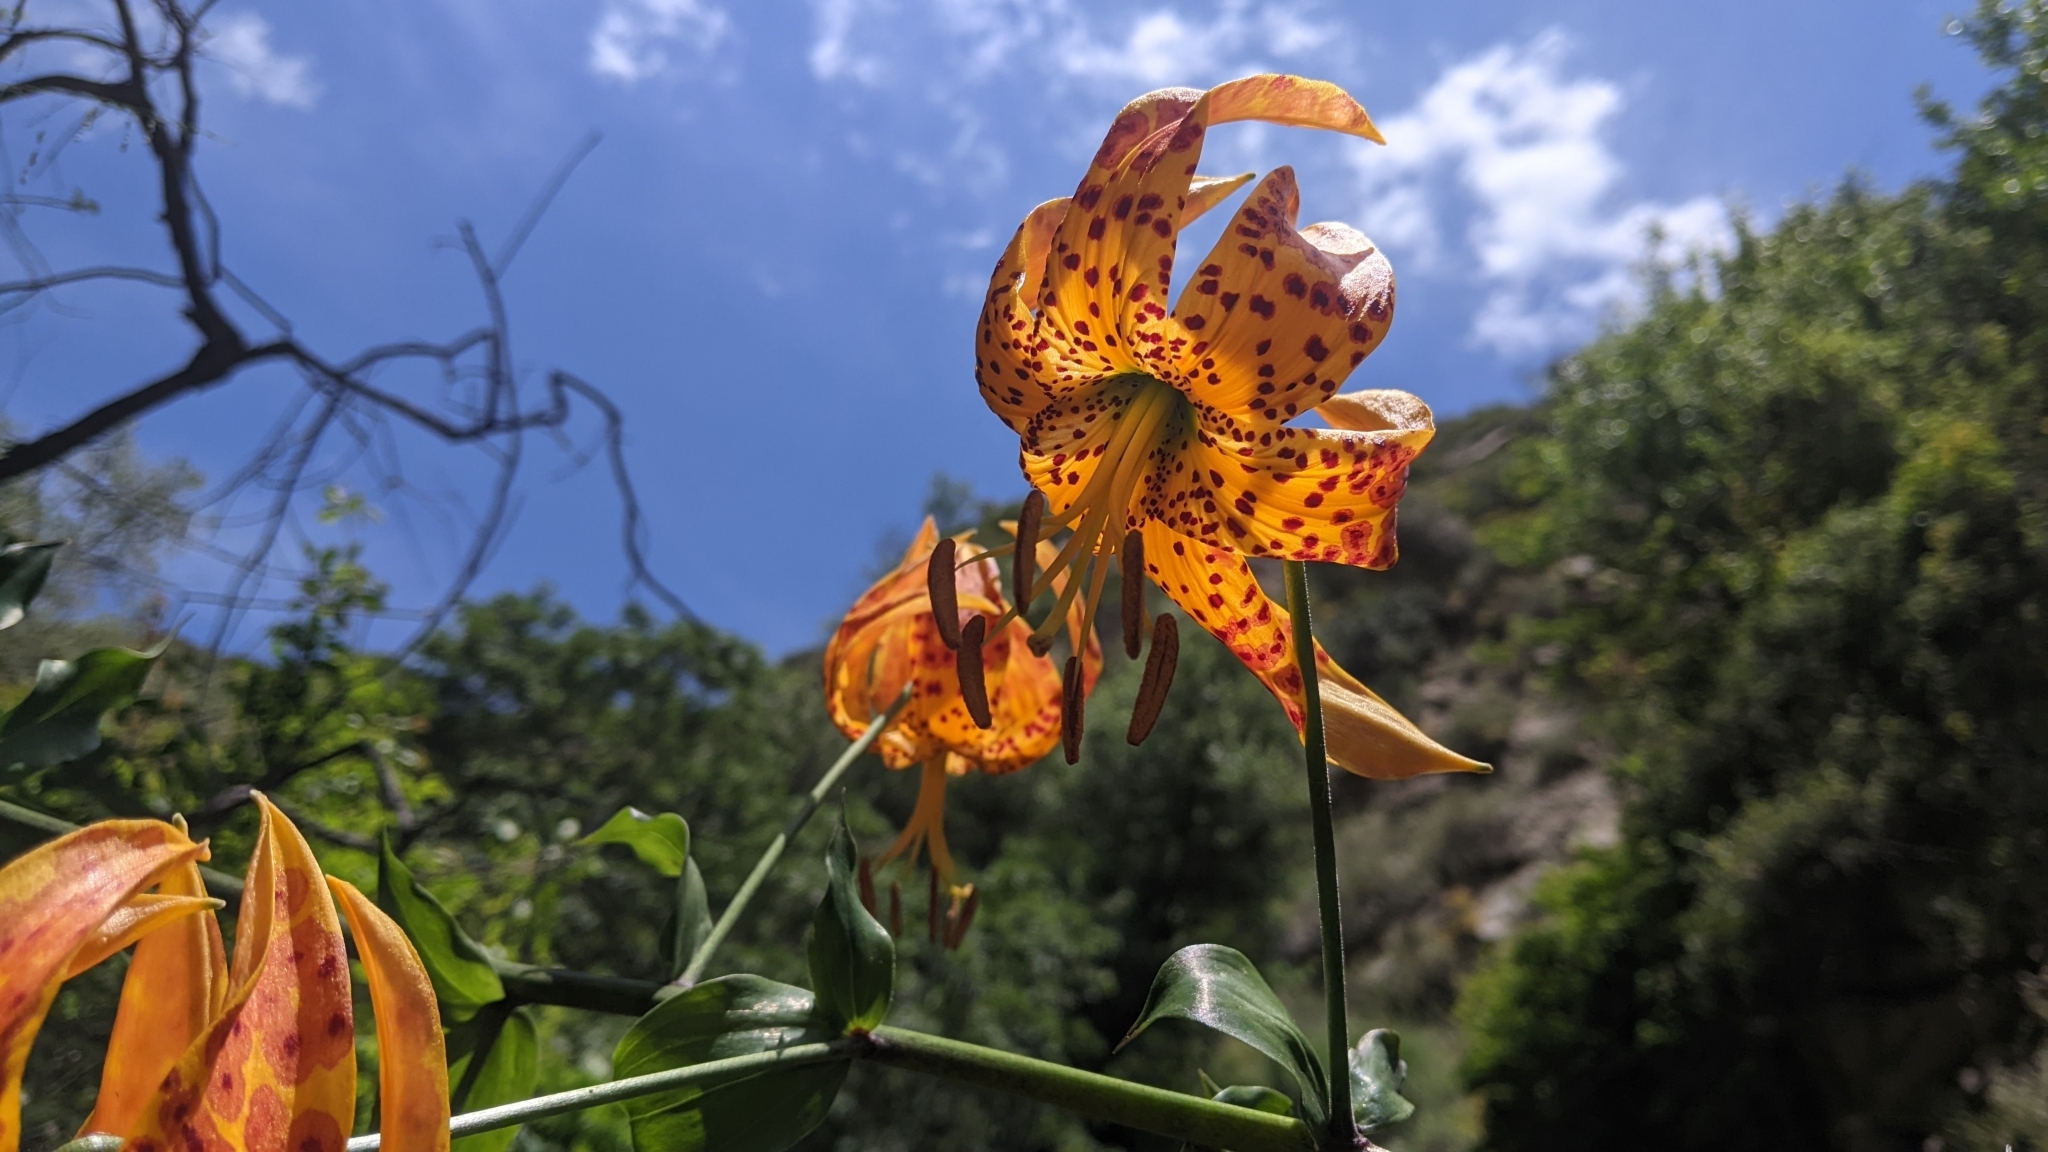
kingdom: Plantae
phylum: Tracheophyta
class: Liliopsida
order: Liliales
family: Liliaceae
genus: Lilium
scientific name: Lilium humboldtii
